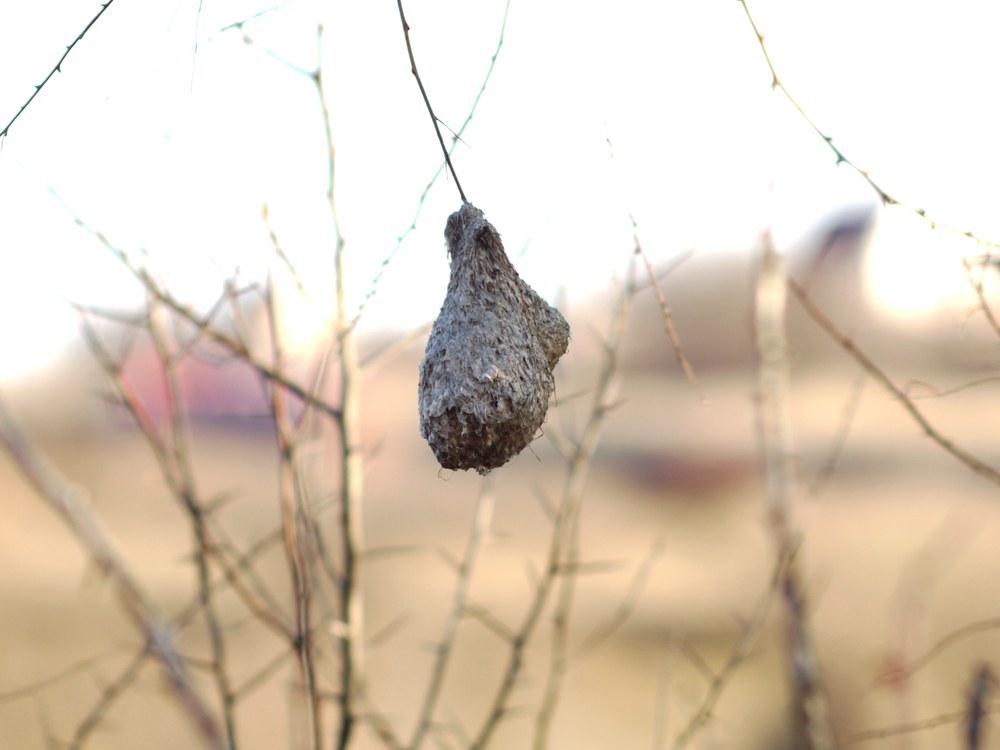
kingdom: Animalia
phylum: Chordata
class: Aves
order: Passeriformes
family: Remizidae
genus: Remiz
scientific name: Remiz pendulinus
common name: Eurasian penduline tit
